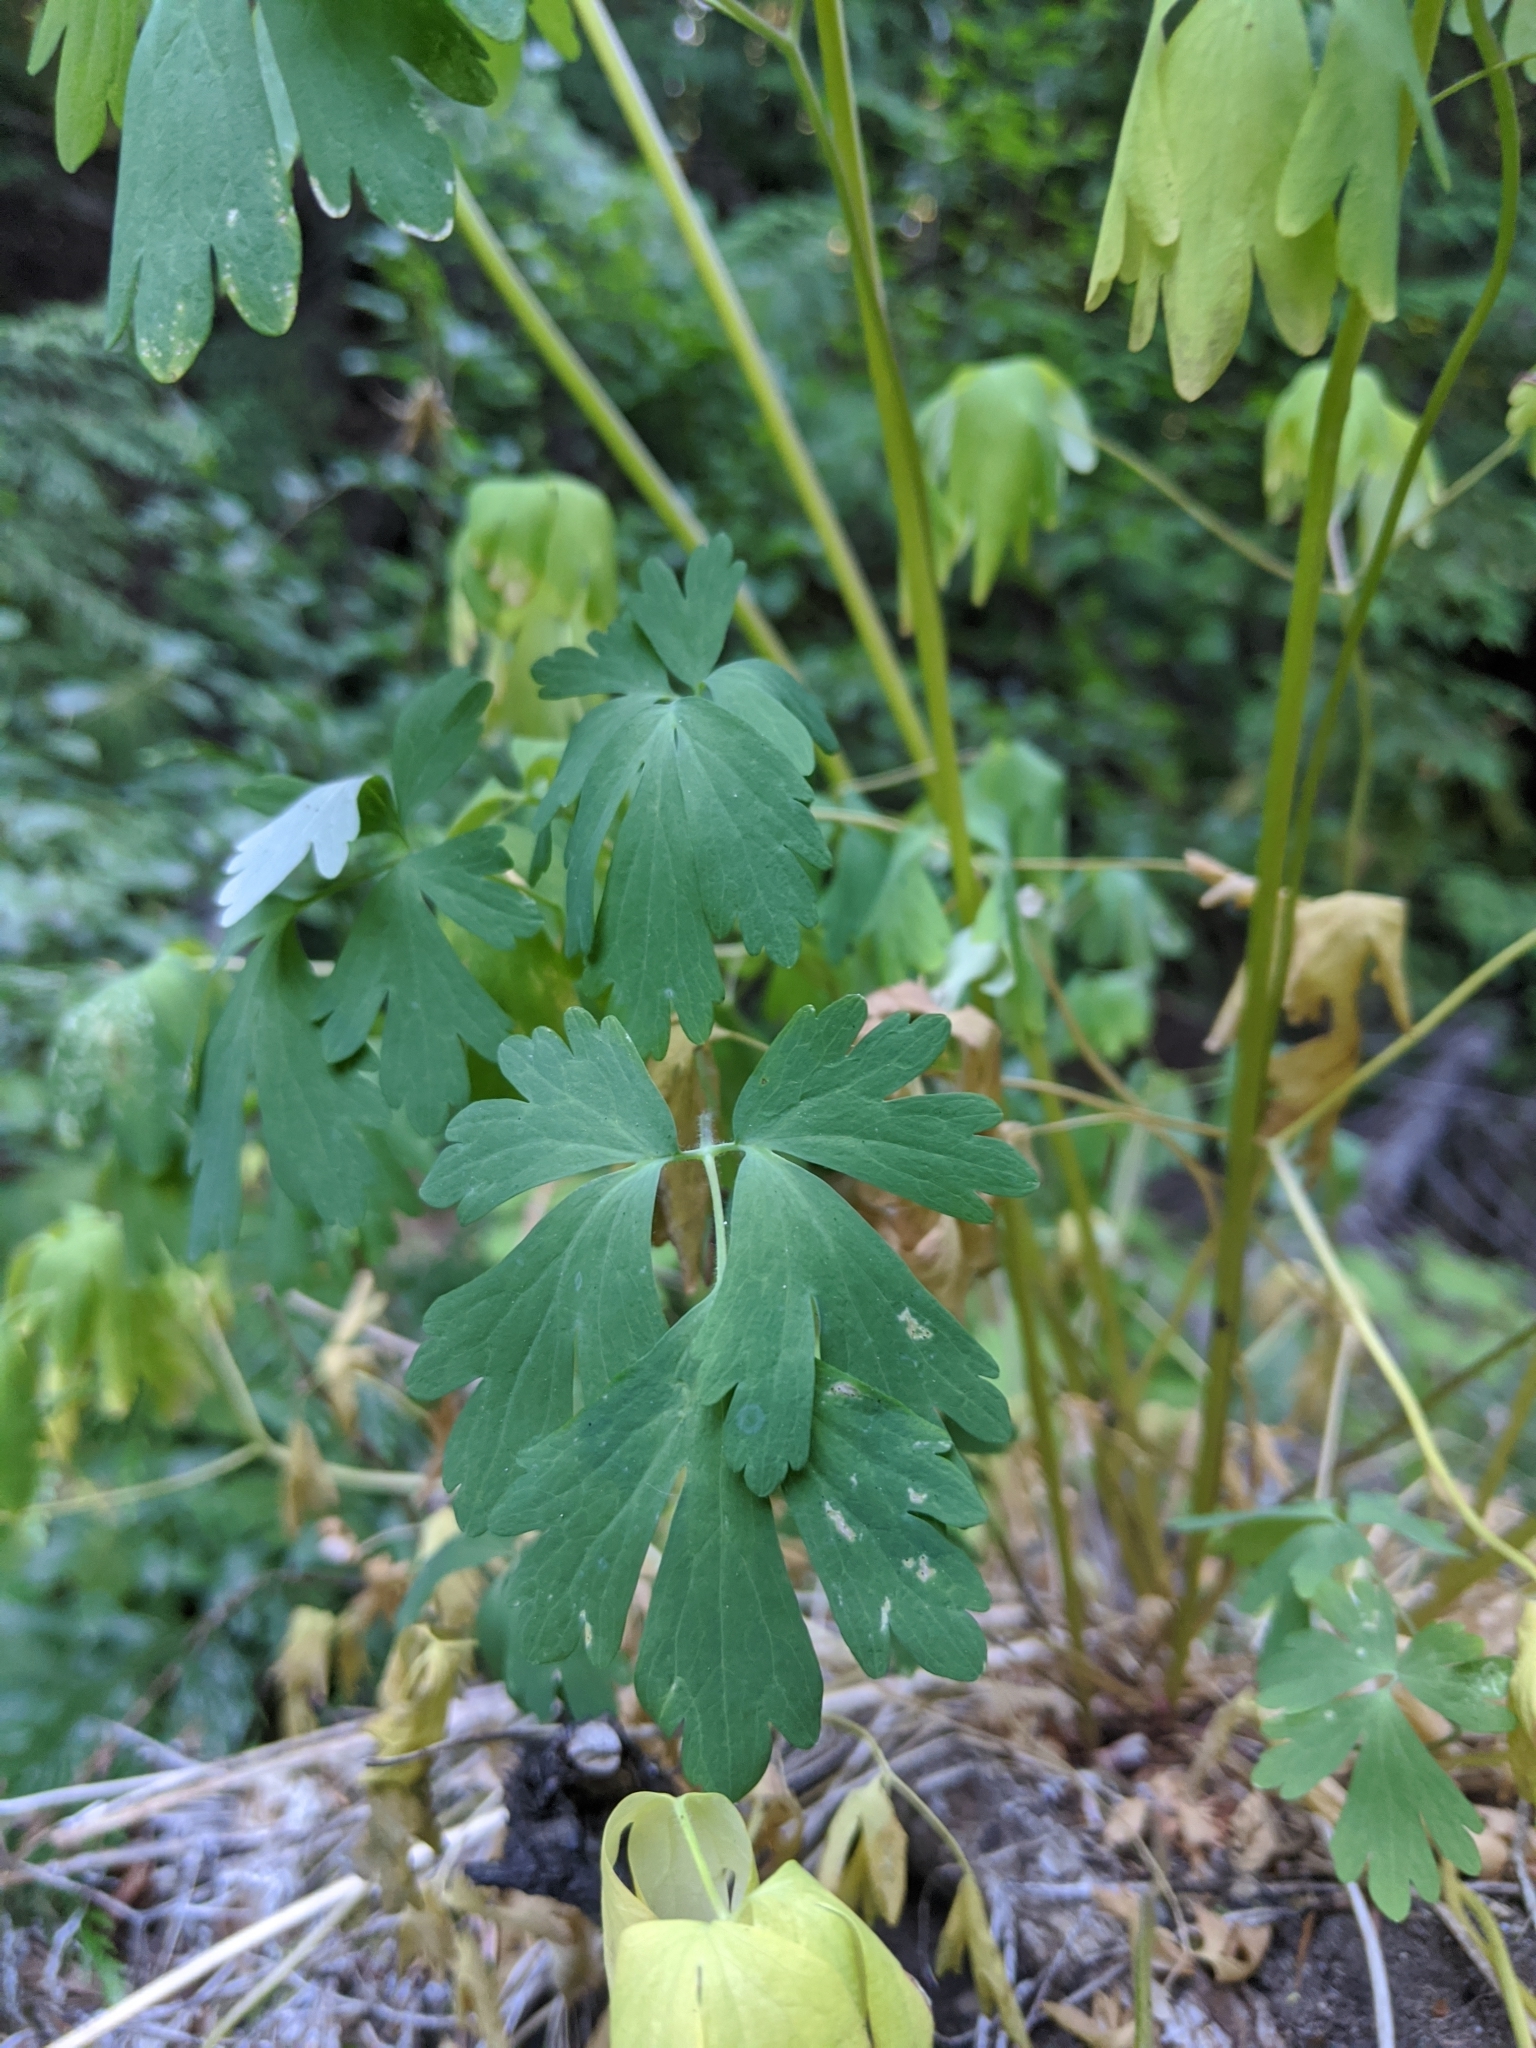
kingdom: Plantae
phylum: Tracheophyta
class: Magnoliopsida
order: Ranunculales
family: Ranunculaceae
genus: Aquilegia
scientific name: Aquilegia formosa
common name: Sitka columbine
